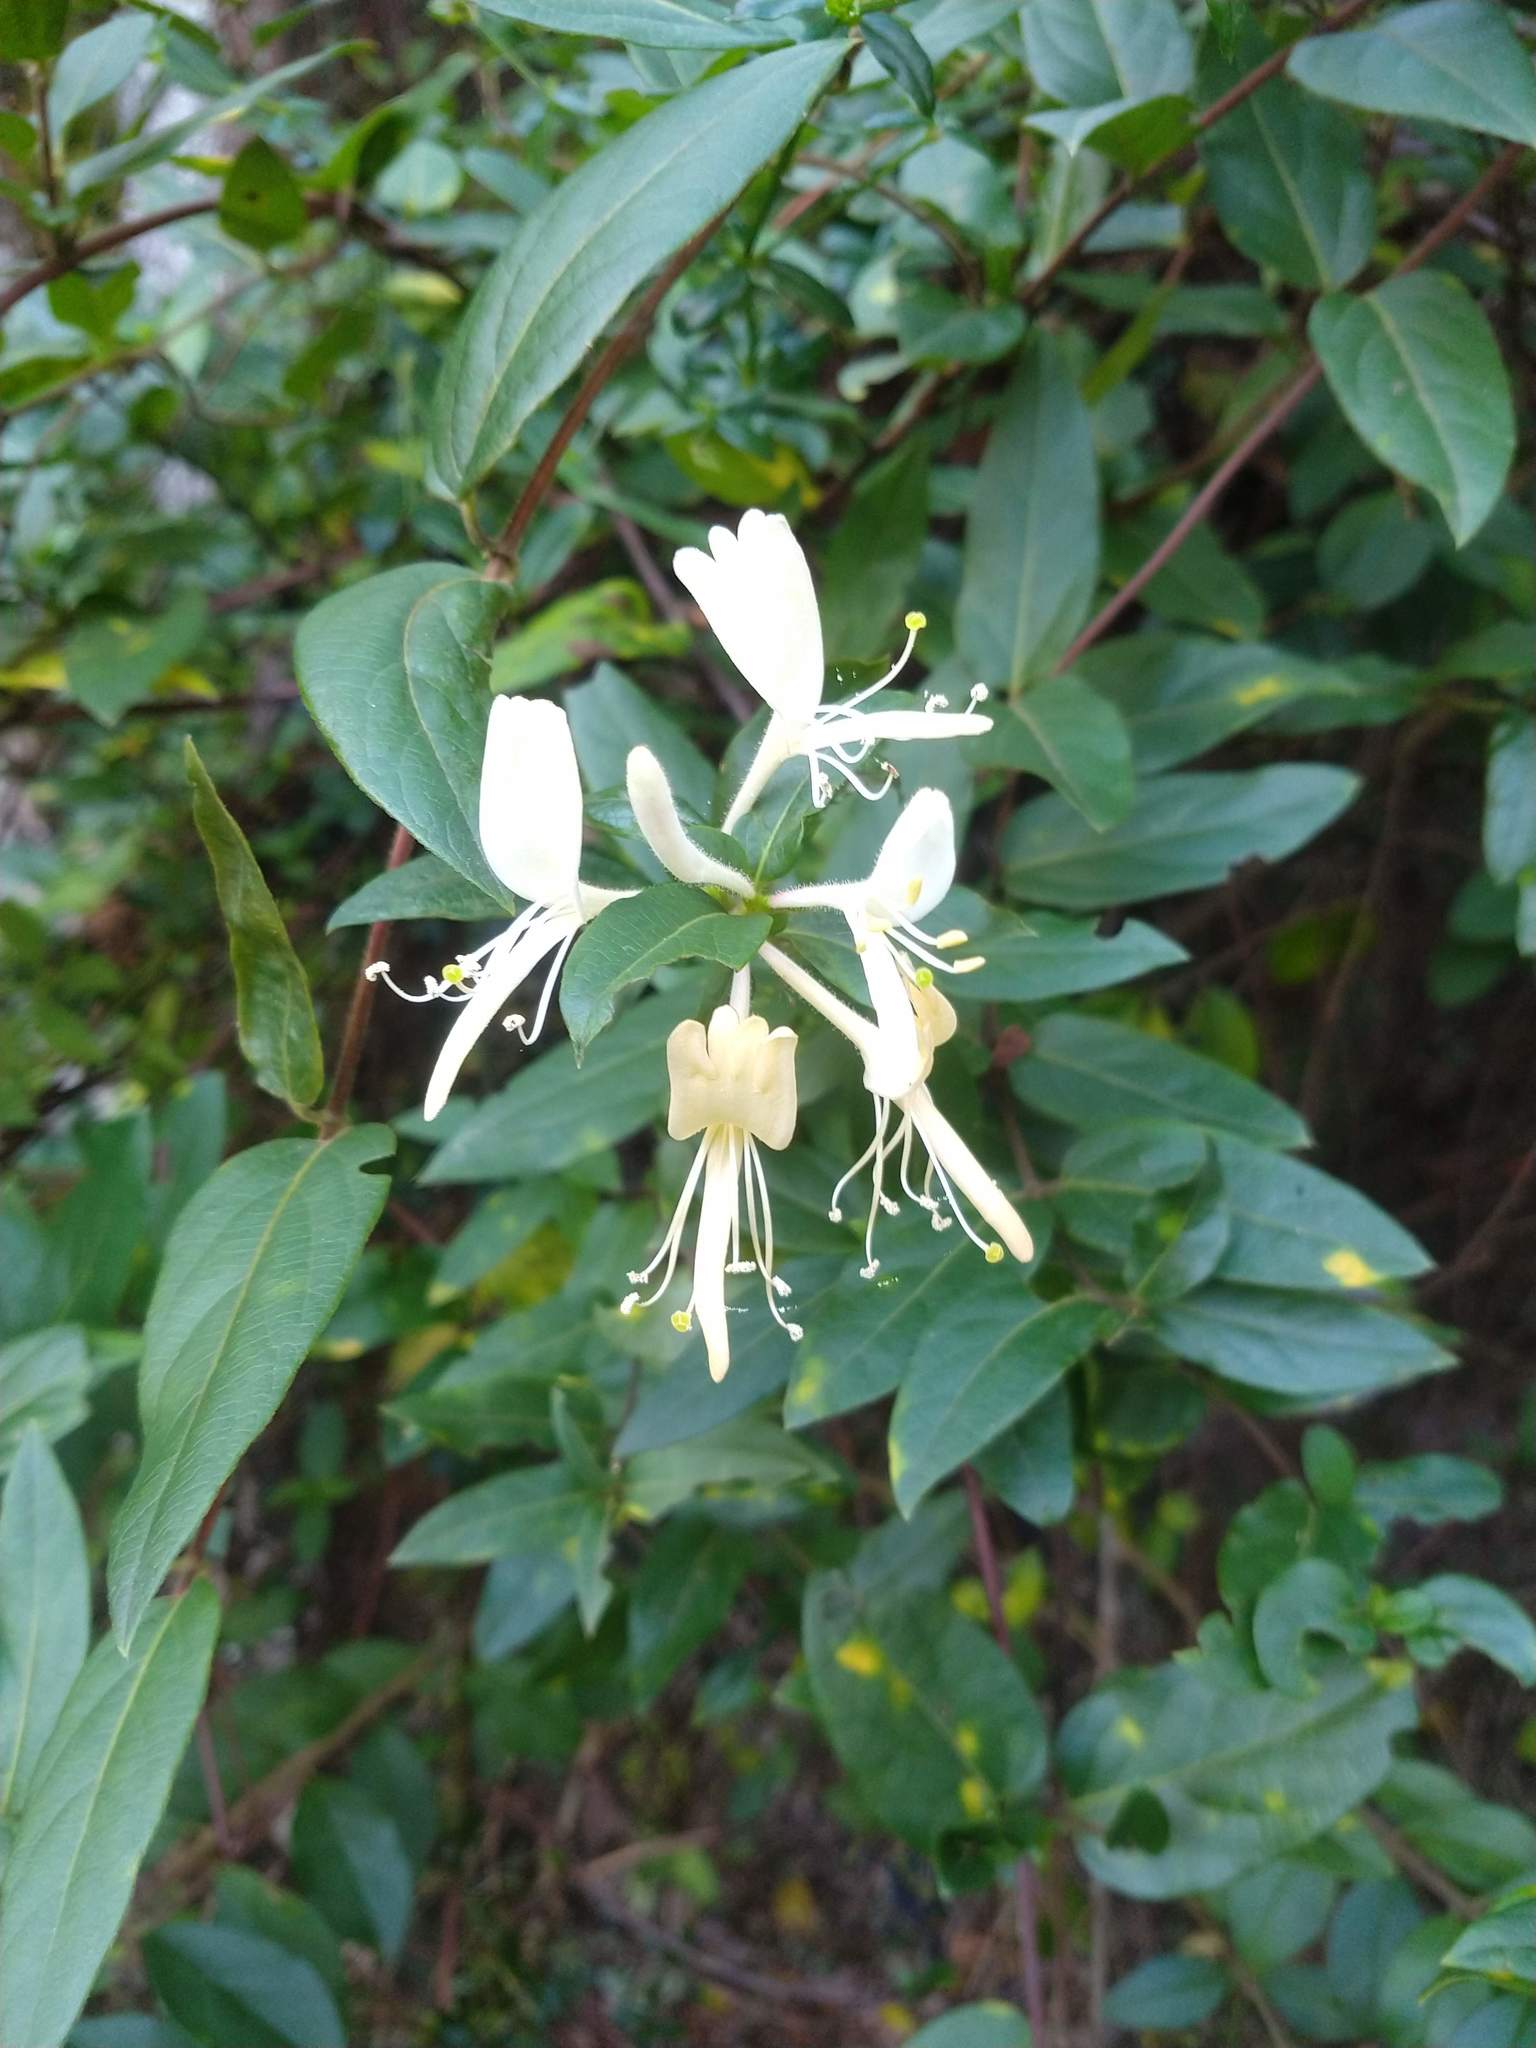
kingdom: Plantae
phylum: Tracheophyta
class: Magnoliopsida
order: Dipsacales
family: Caprifoliaceae
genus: Lonicera
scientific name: Lonicera japonica
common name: Japanese honeysuckle
